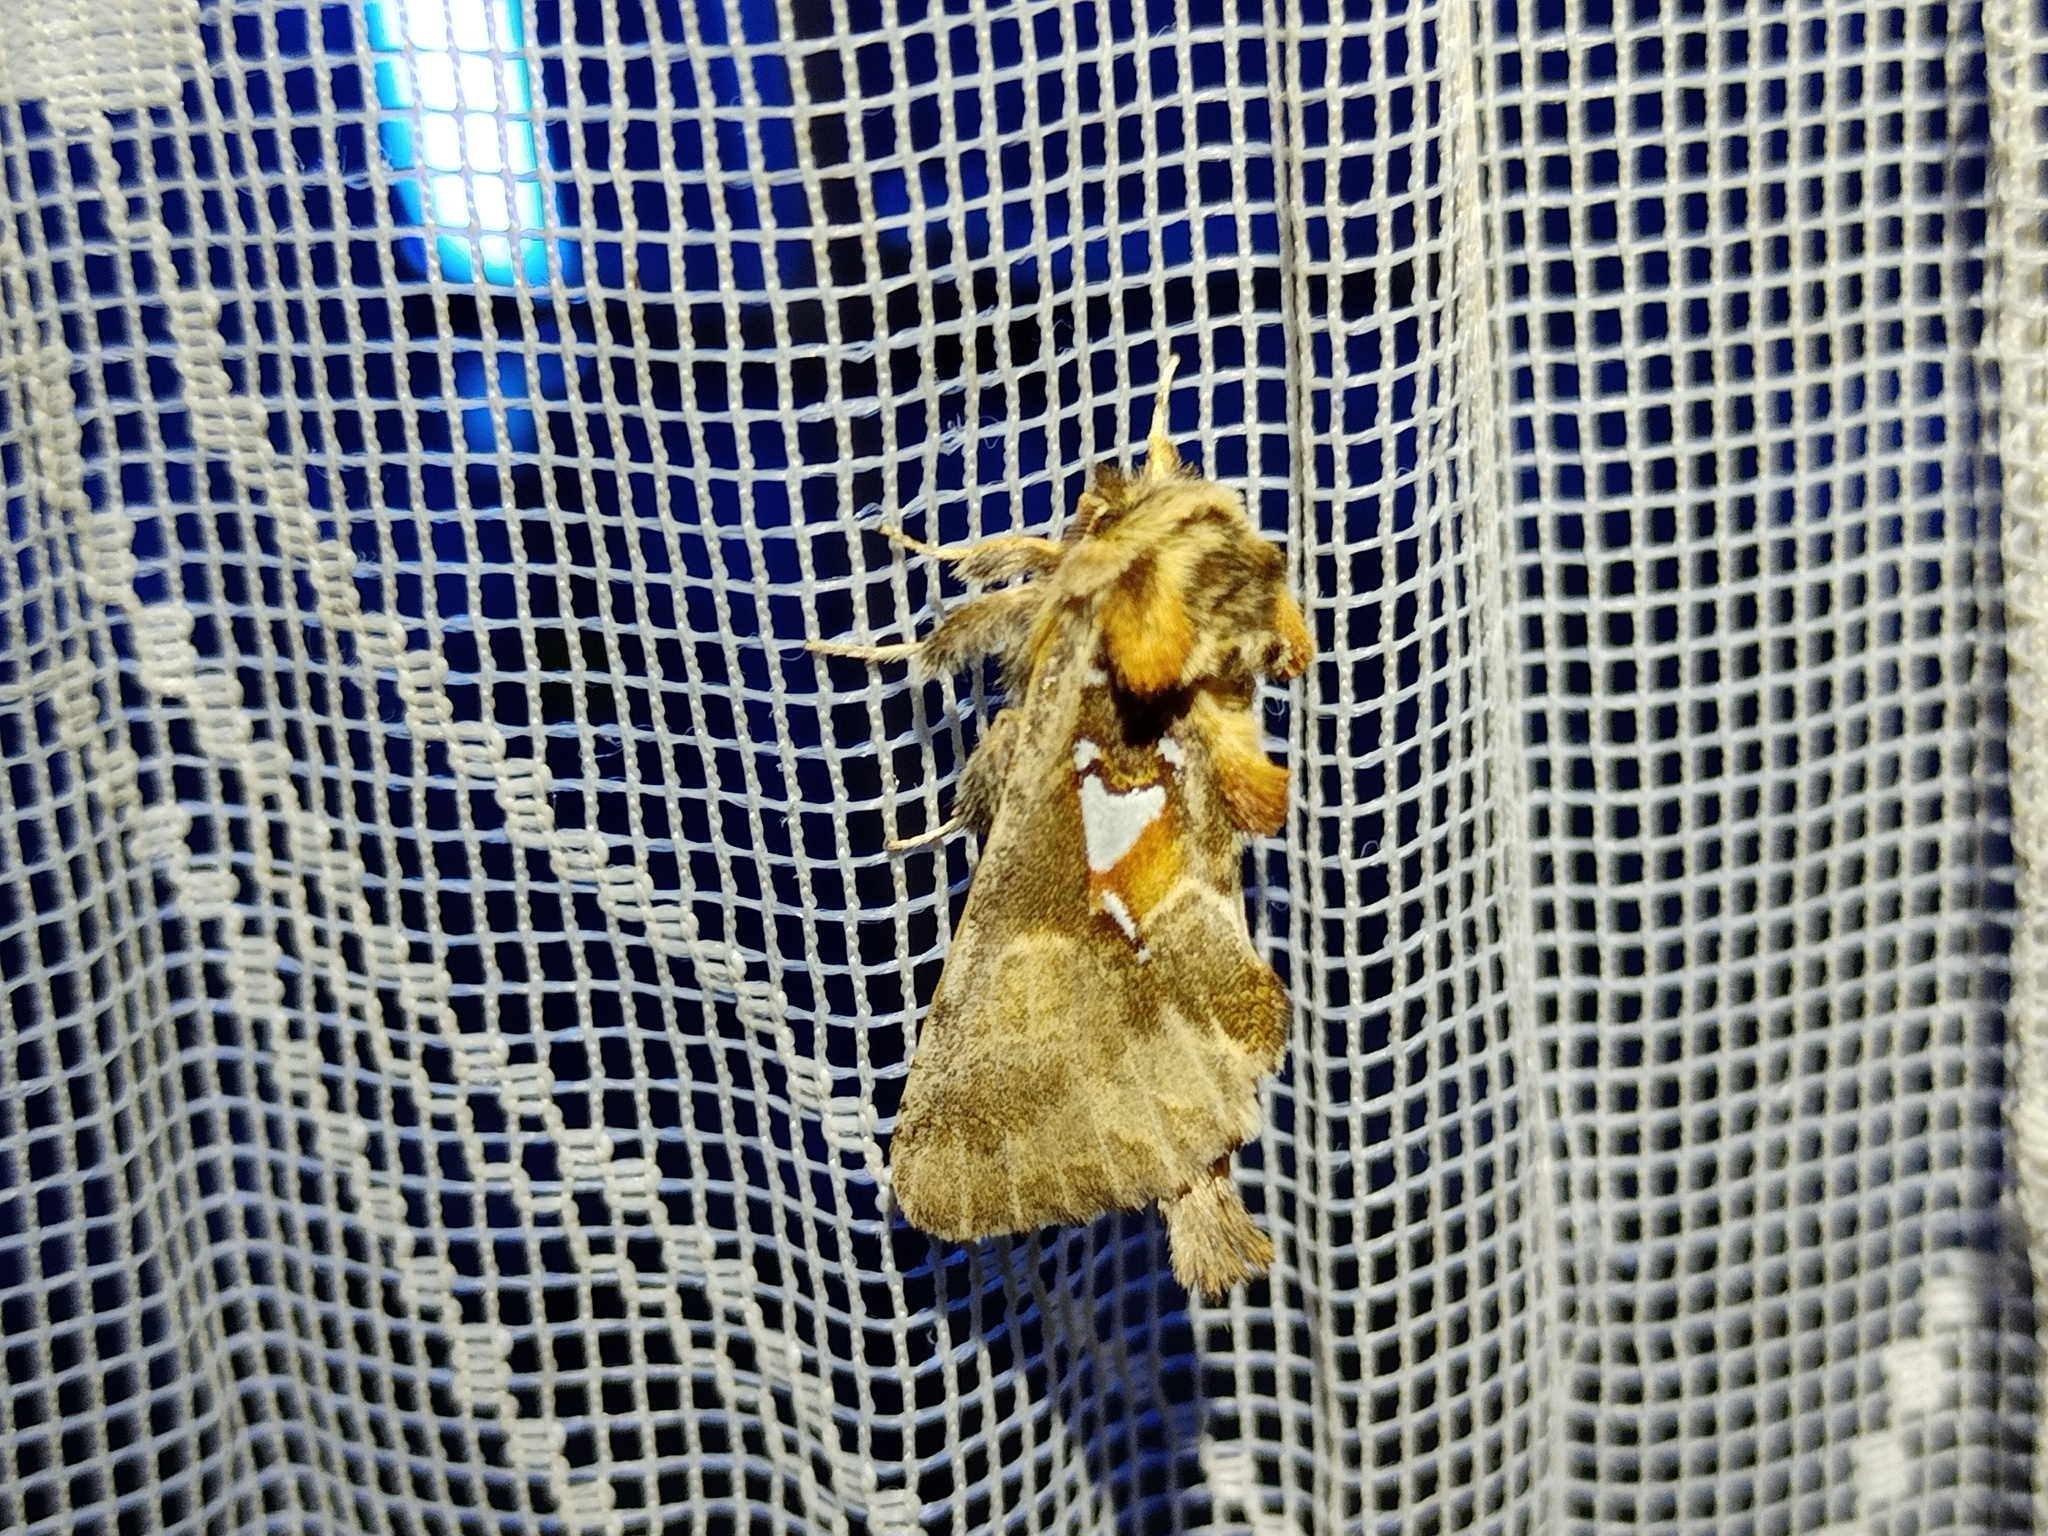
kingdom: Animalia
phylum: Arthropoda
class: Insecta
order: Lepidoptera
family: Notodontidae
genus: Spatalia
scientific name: Spatalia argentina
